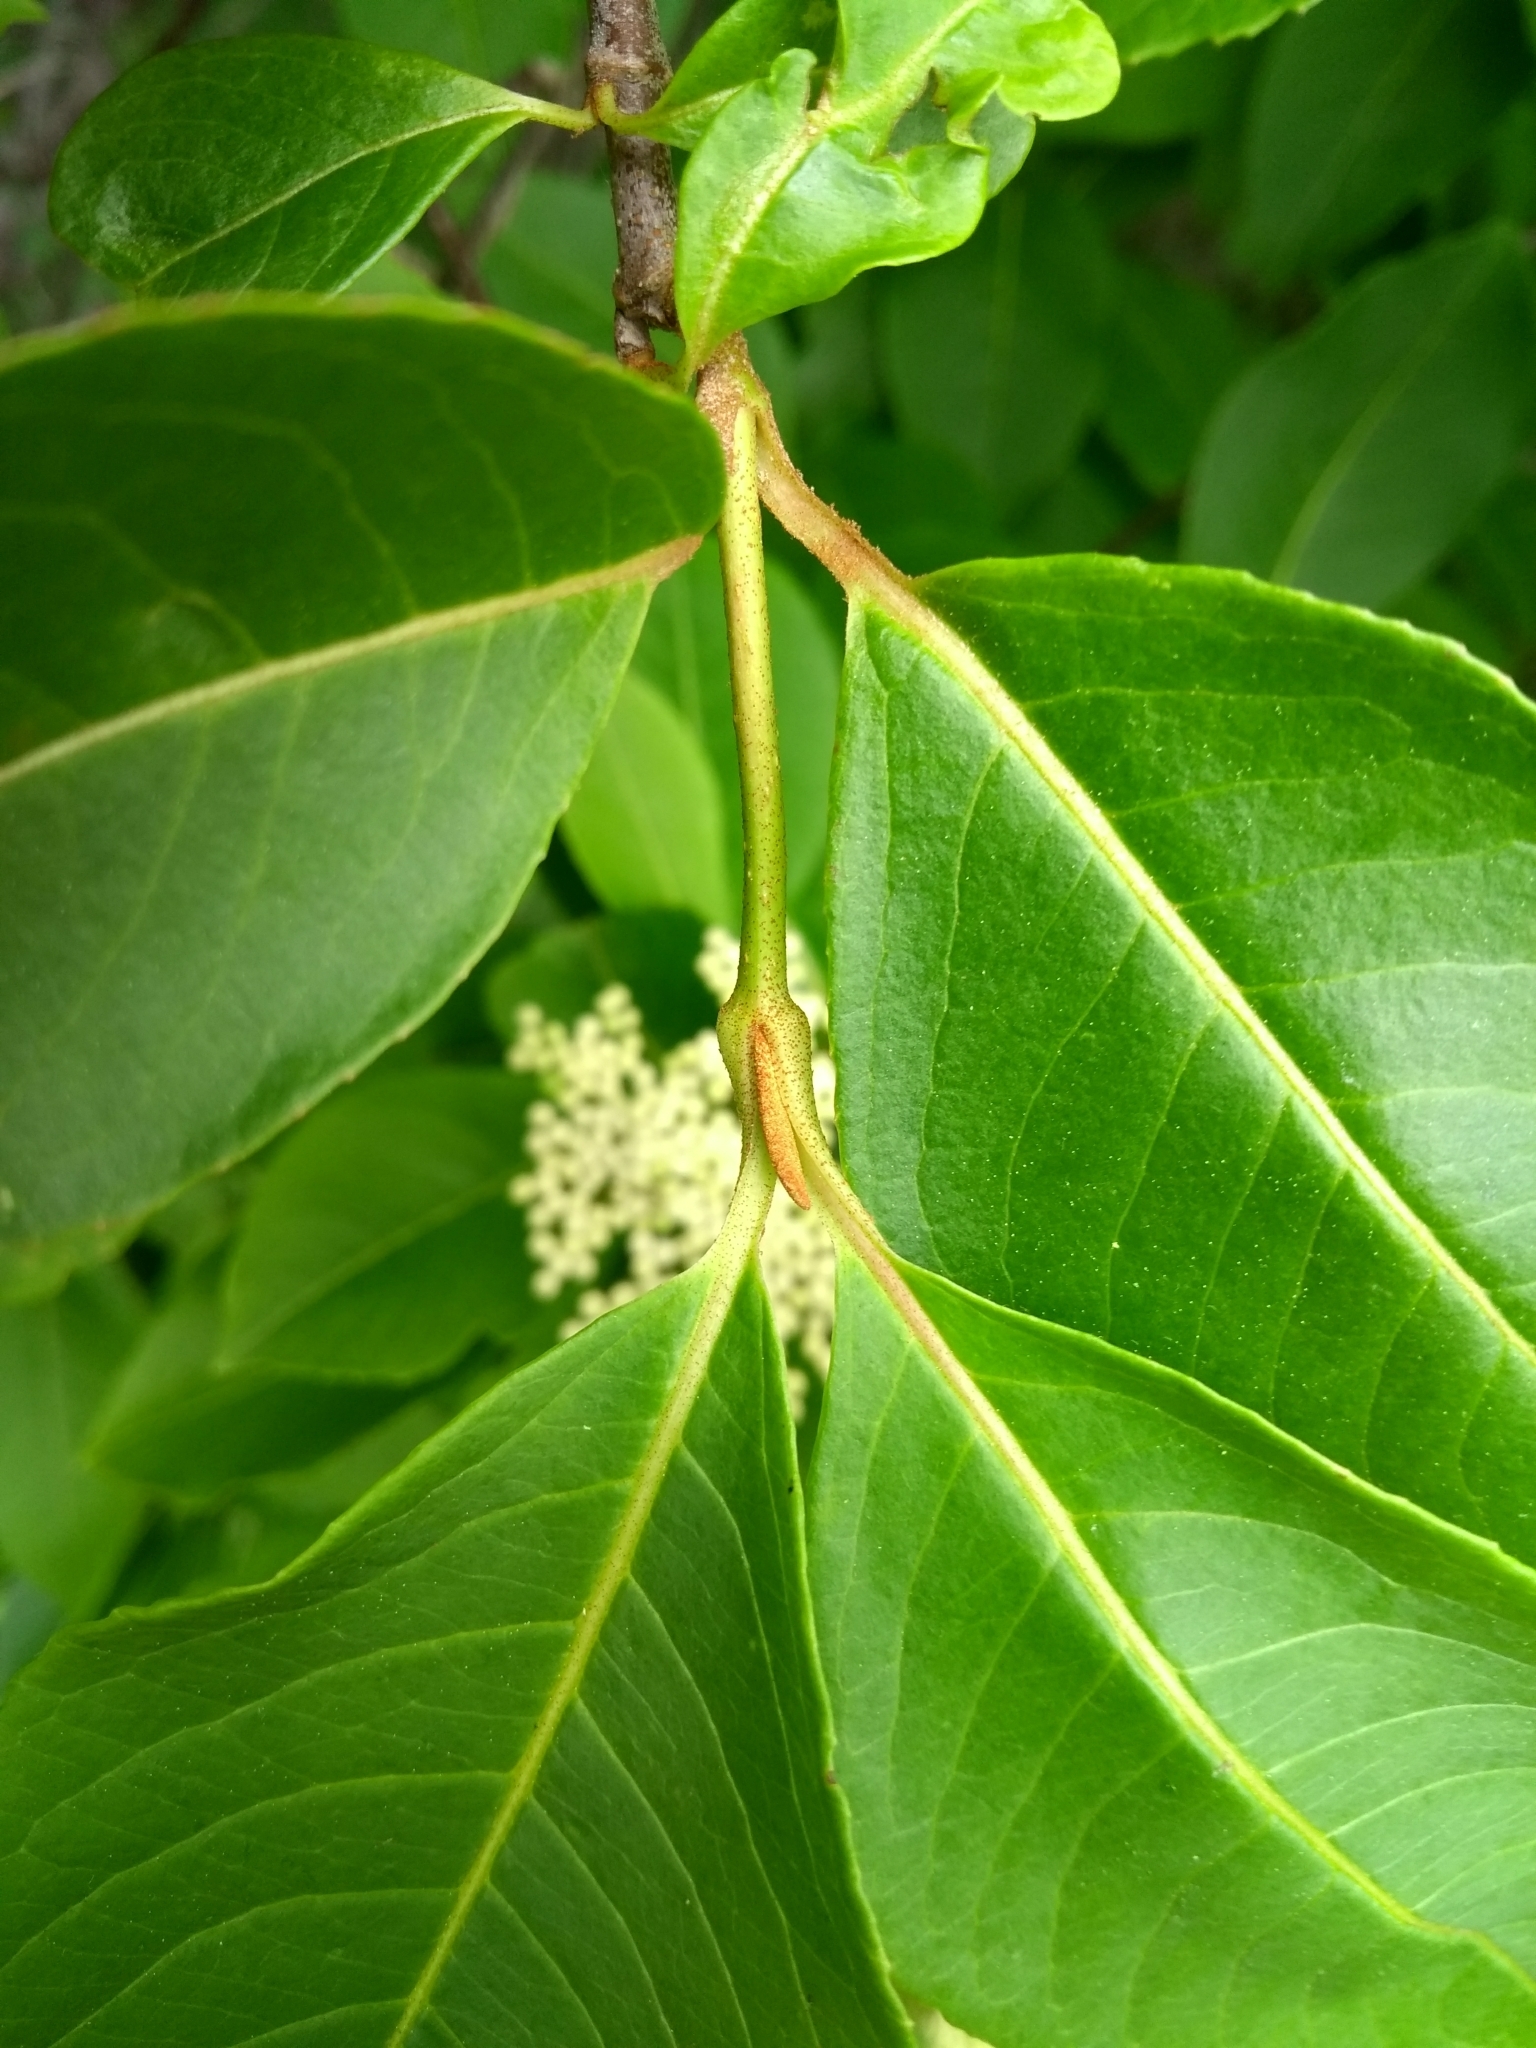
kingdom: Plantae
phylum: Tracheophyta
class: Magnoliopsida
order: Dipsacales
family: Viburnaceae
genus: Viburnum
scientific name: Viburnum cassinoides
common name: Swamp haw
